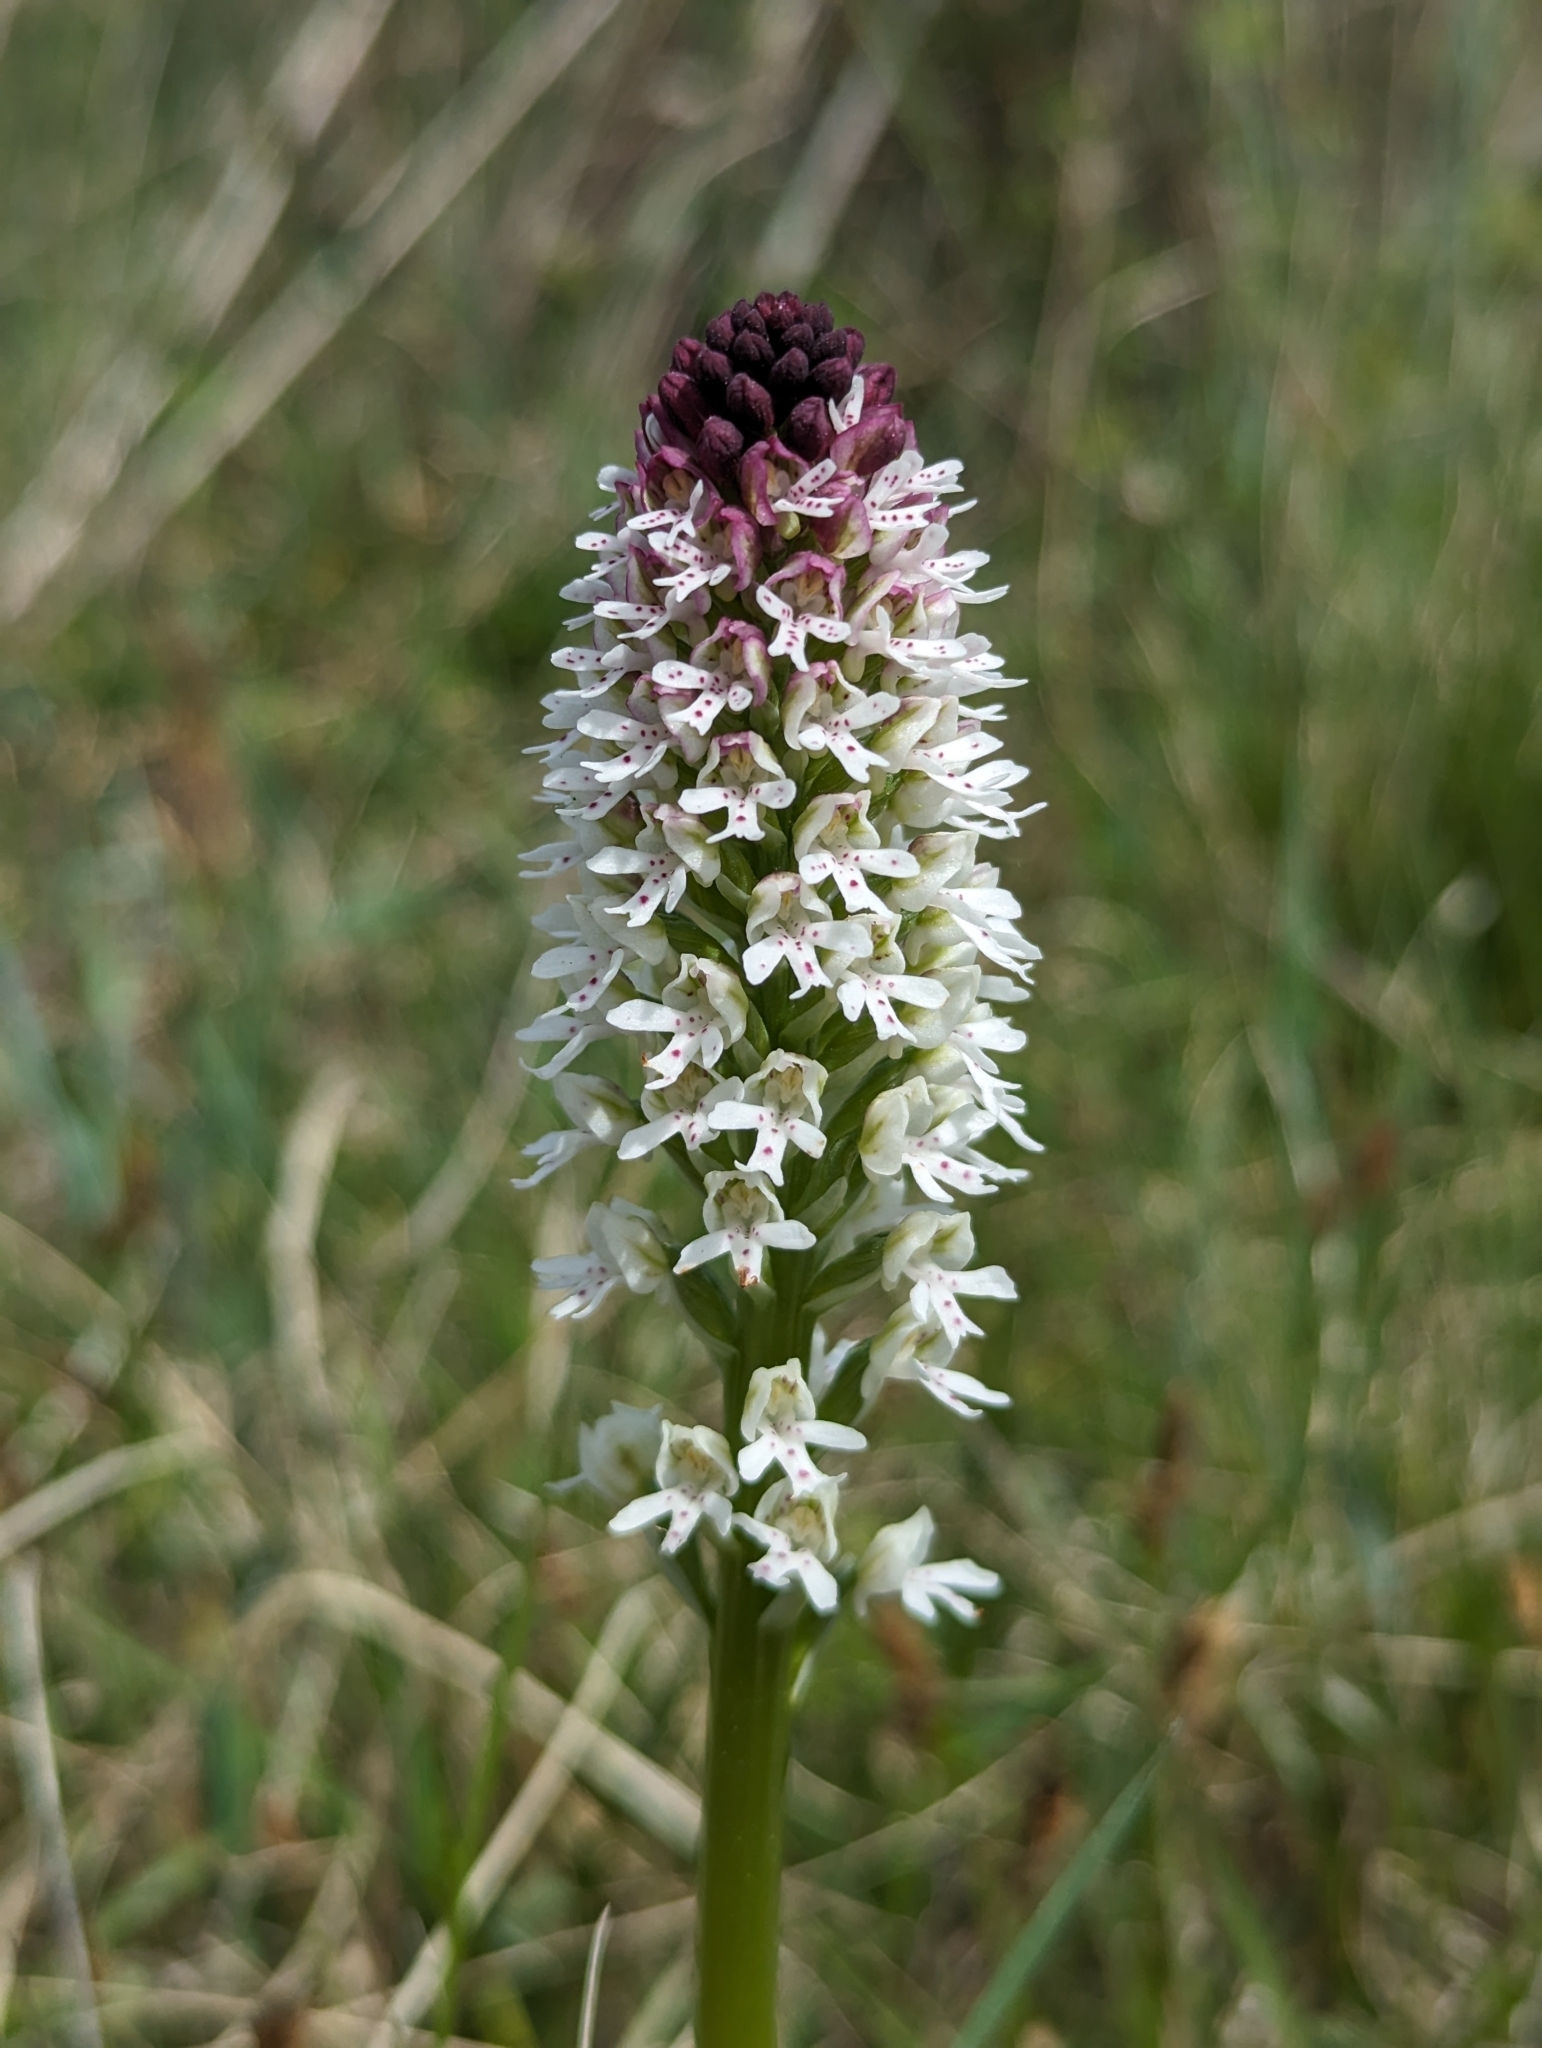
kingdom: Plantae
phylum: Tracheophyta
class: Liliopsida
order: Asparagales
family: Orchidaceae
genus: Neotinea
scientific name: Neotinea ustulata
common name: Burnt orchid
